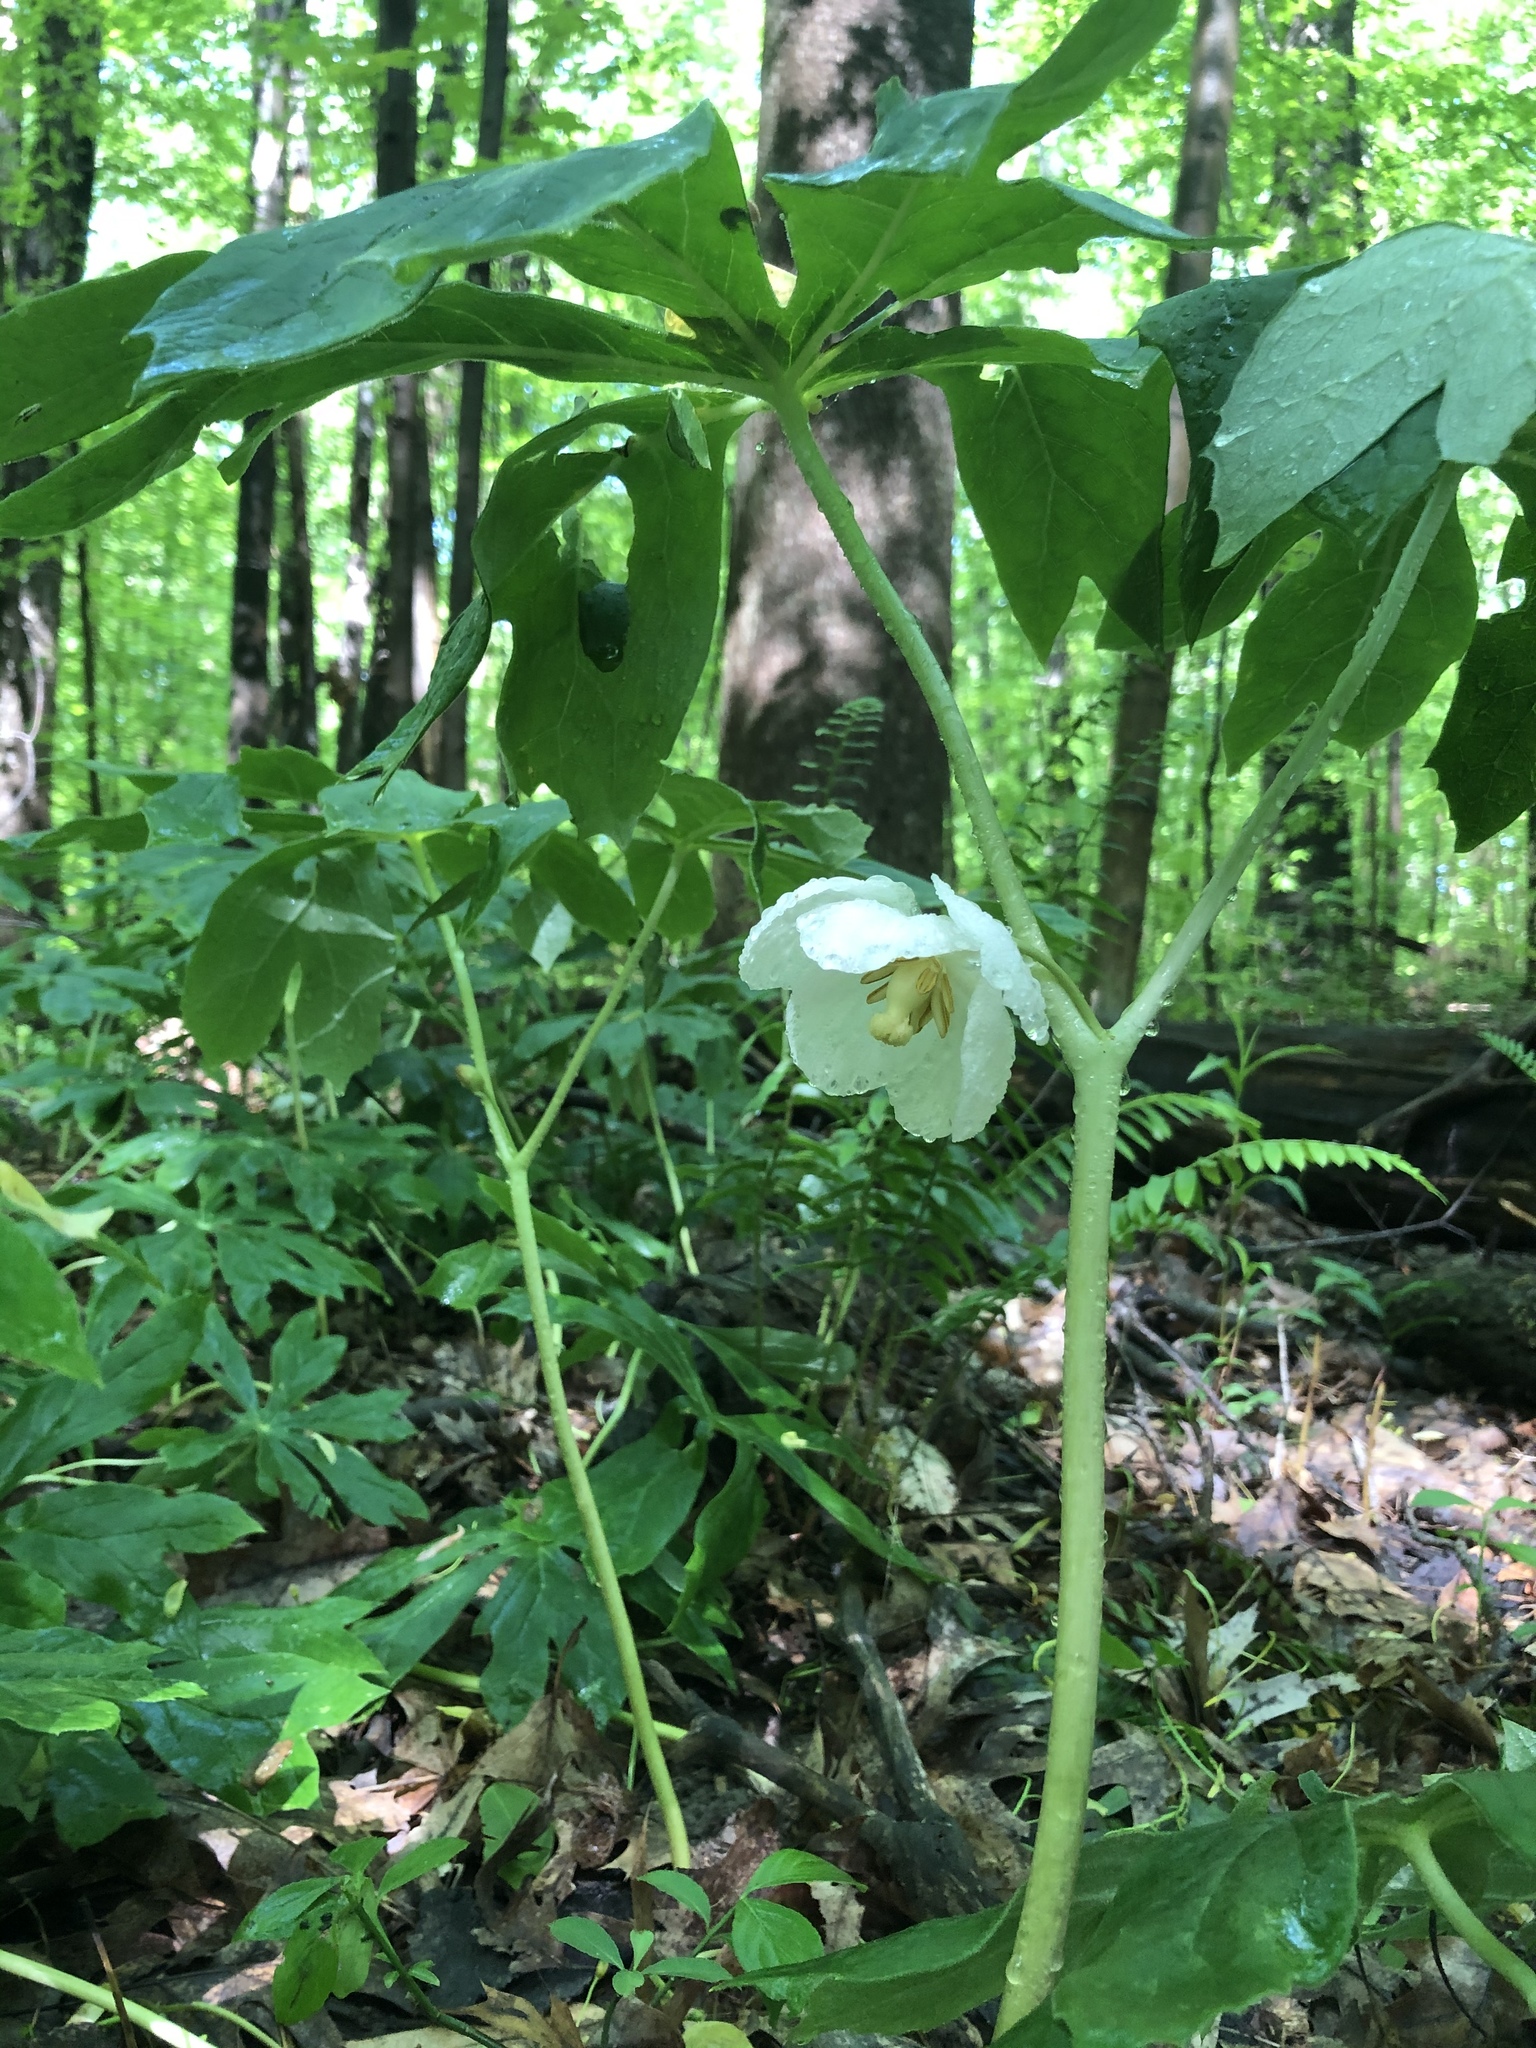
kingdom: Plantae
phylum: Tracheophyta
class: Magnoliopsida
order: Ranunculales
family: Berberidaceae
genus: Podophyllum
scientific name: Podophyllum peltatum
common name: Wild mandrake
